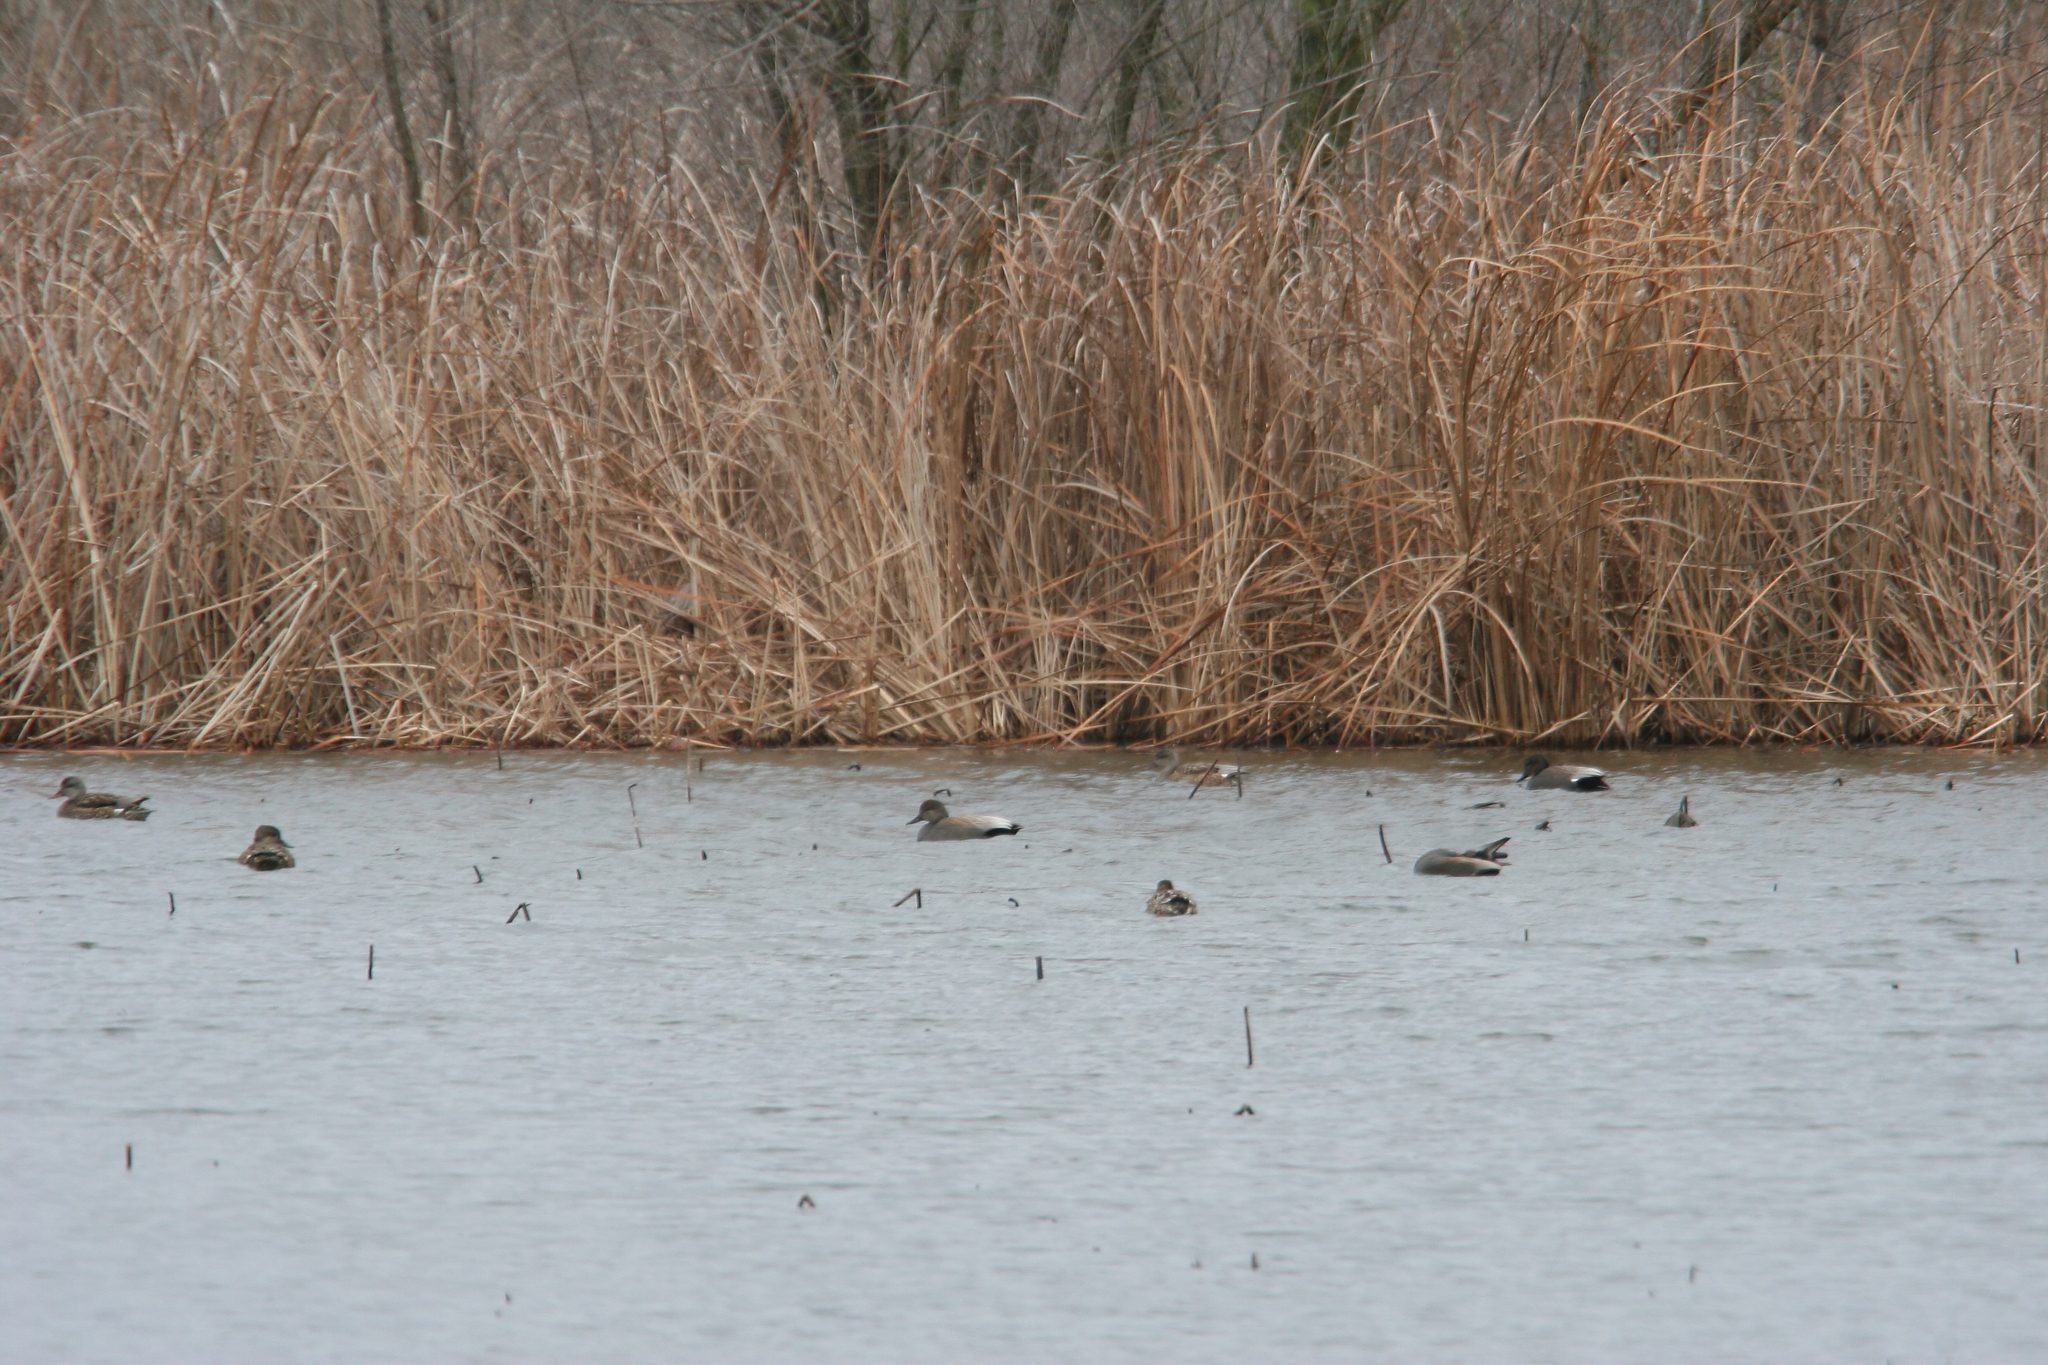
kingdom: Animalia
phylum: Chordata
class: Aves
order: Anseriformes
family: Anatidae
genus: Mareca
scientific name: Mareca strepera
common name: Gadwall
